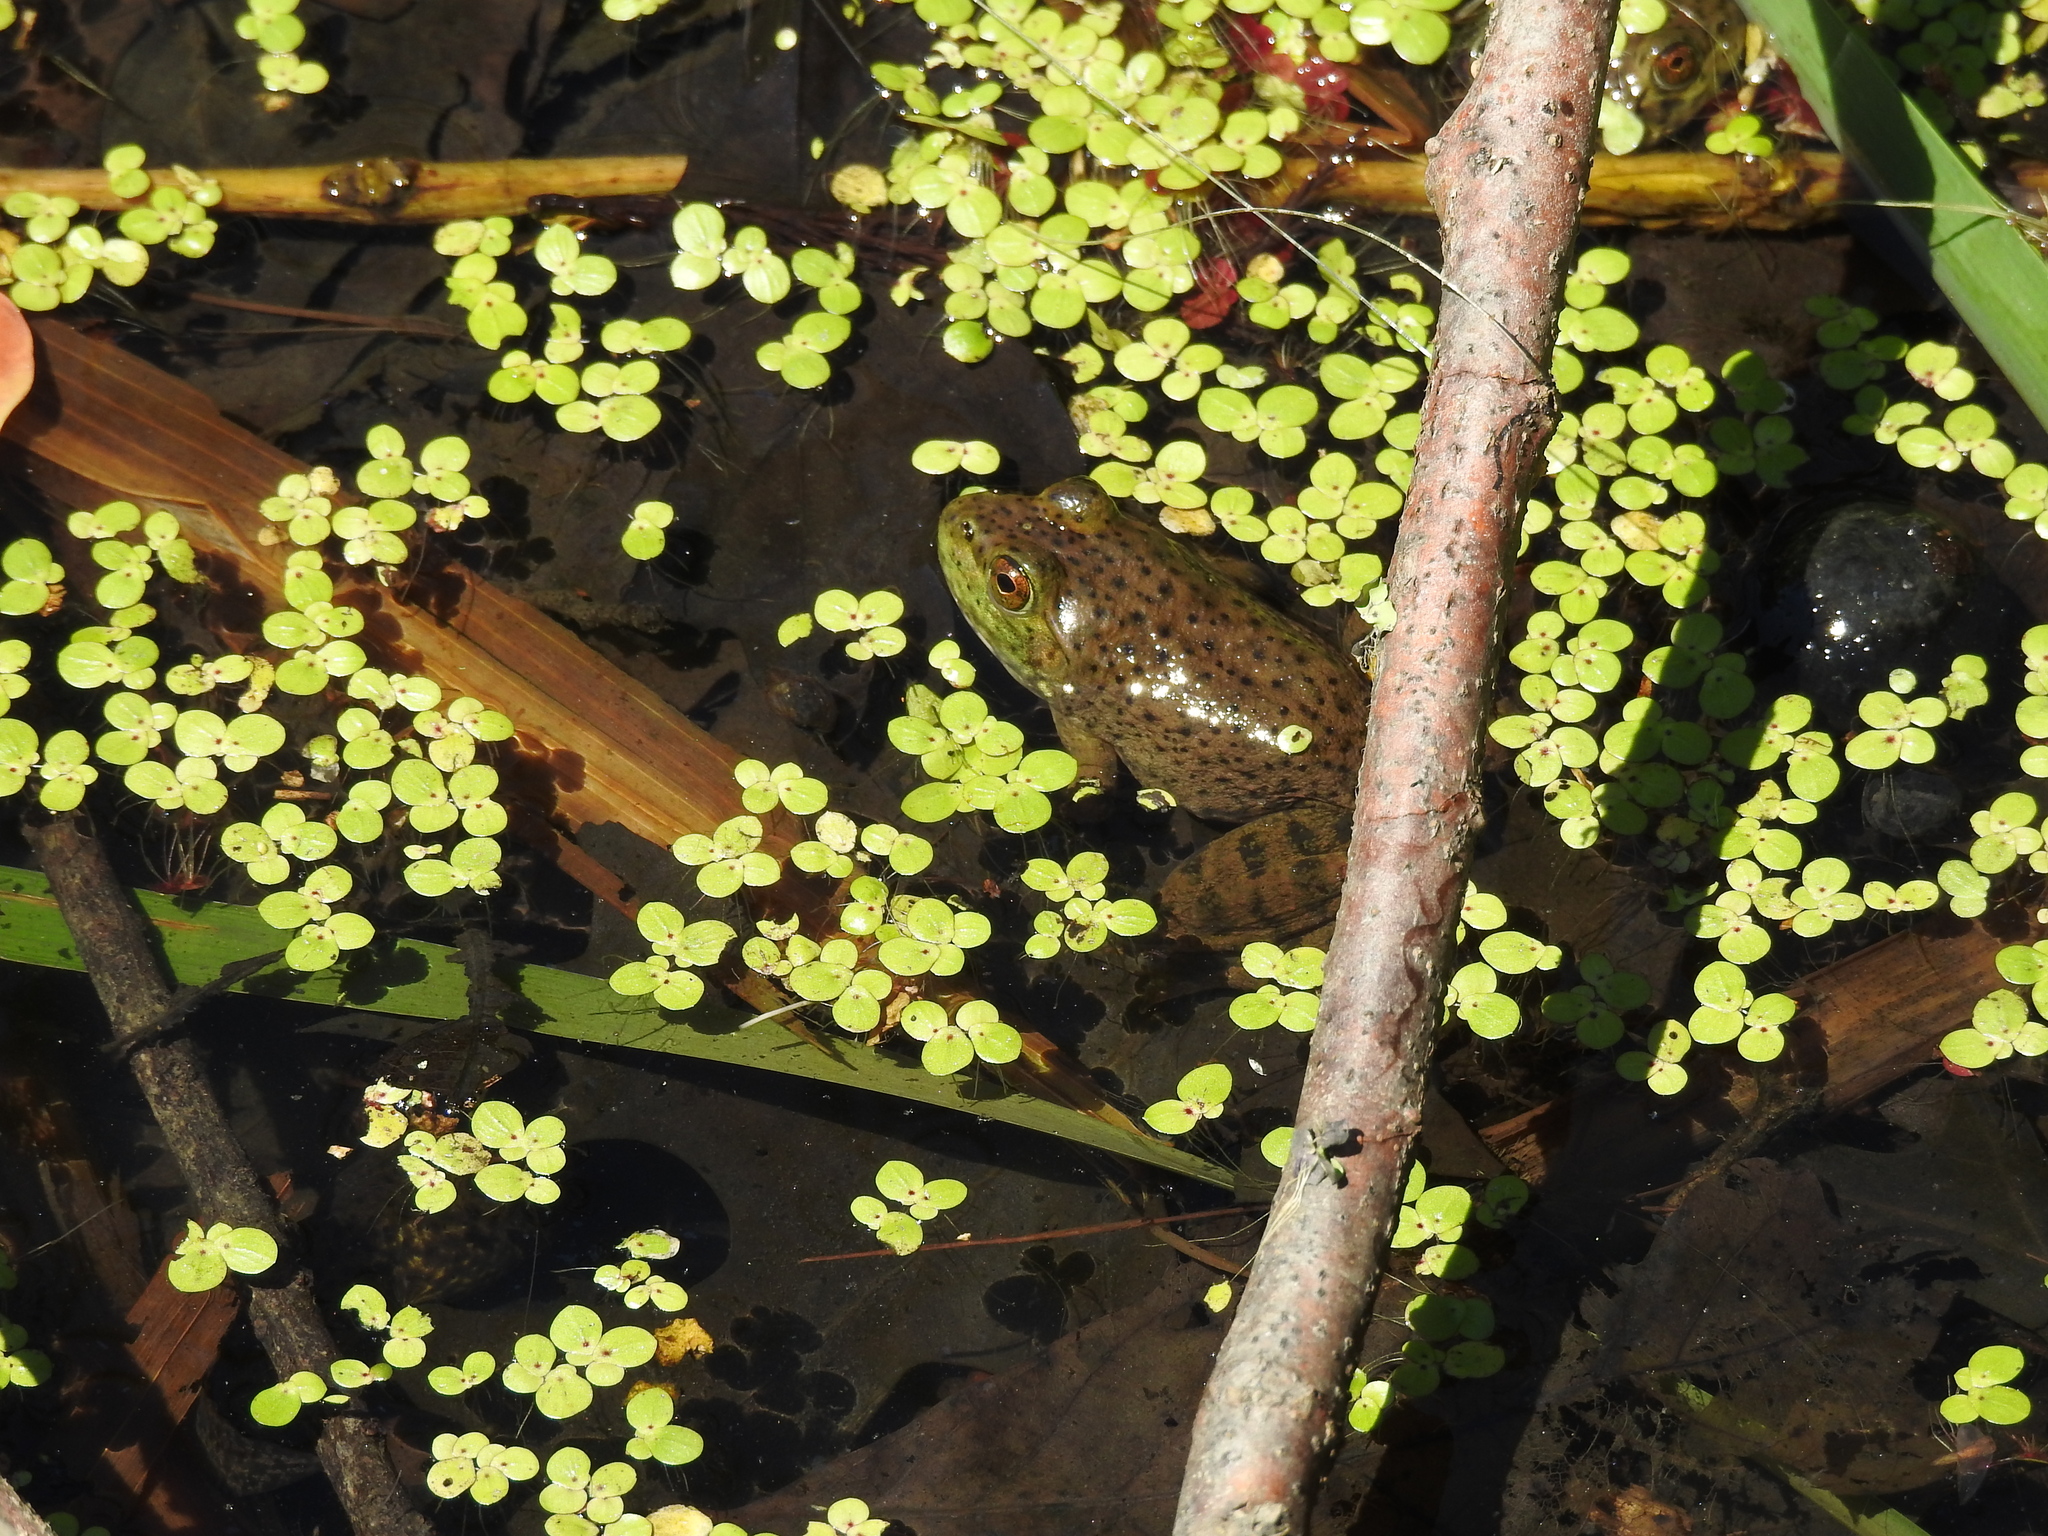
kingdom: Animalia
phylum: Chordata
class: Amphibia
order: Anura
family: Ranidae
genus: Lithobates
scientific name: Lithobates catesbeianus
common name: American bullfrog
